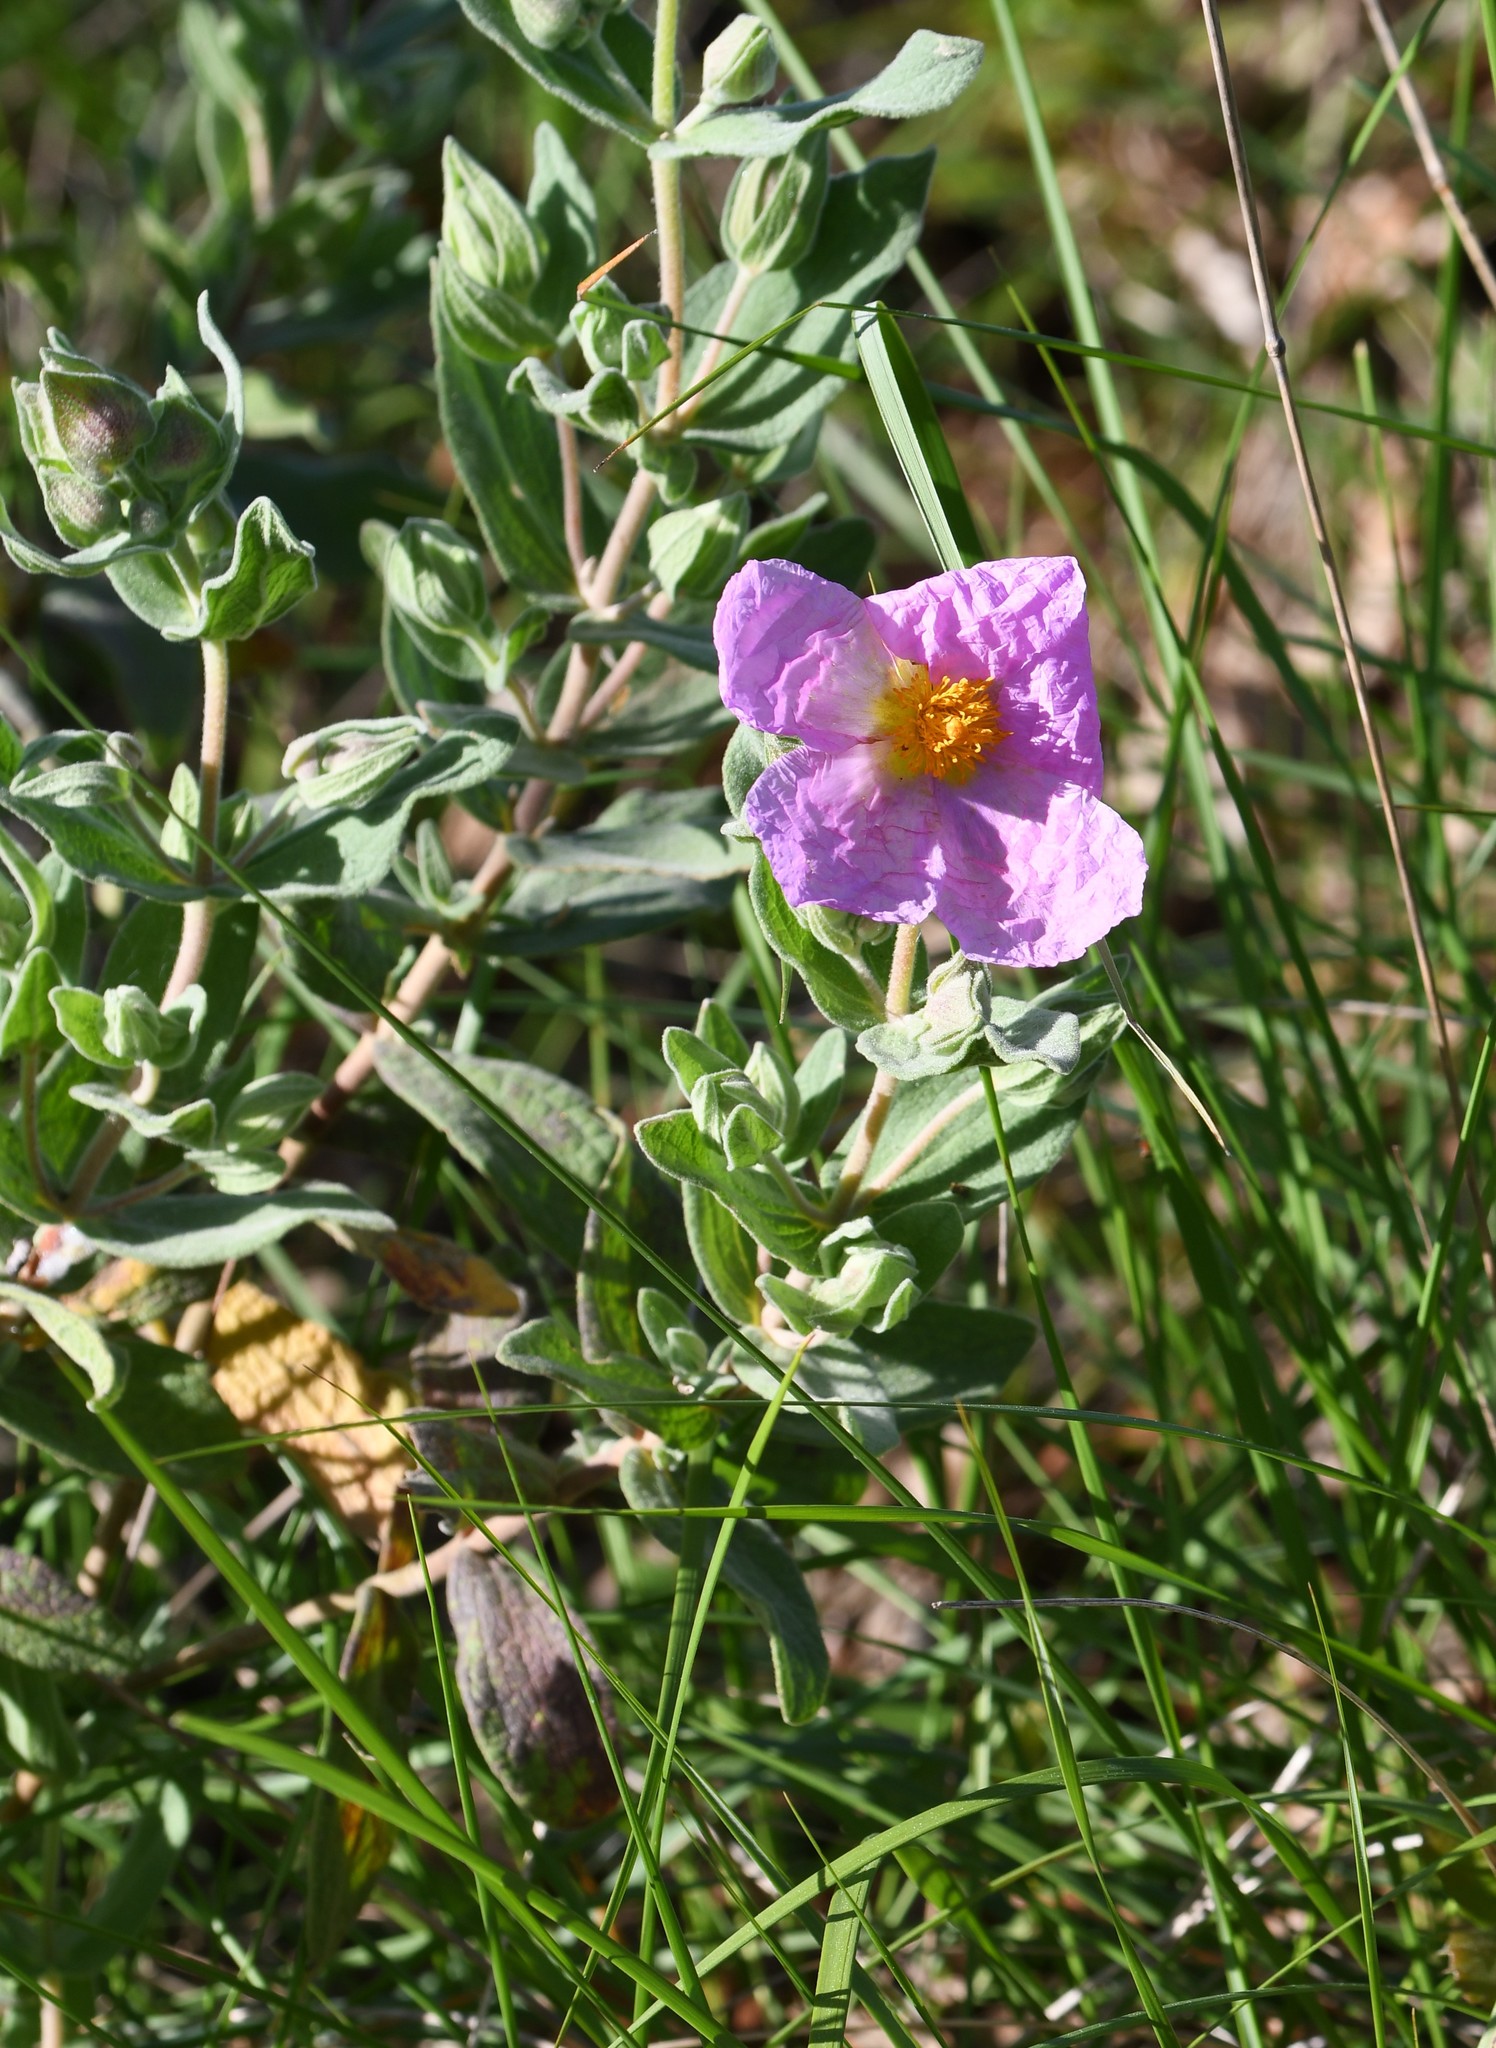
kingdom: Plantae
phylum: Tracheophyta
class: Magnoliopsida
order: Malvales
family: Cistaceae
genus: Cistus
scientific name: Cistus albidus
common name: White-leaf rock-rose
